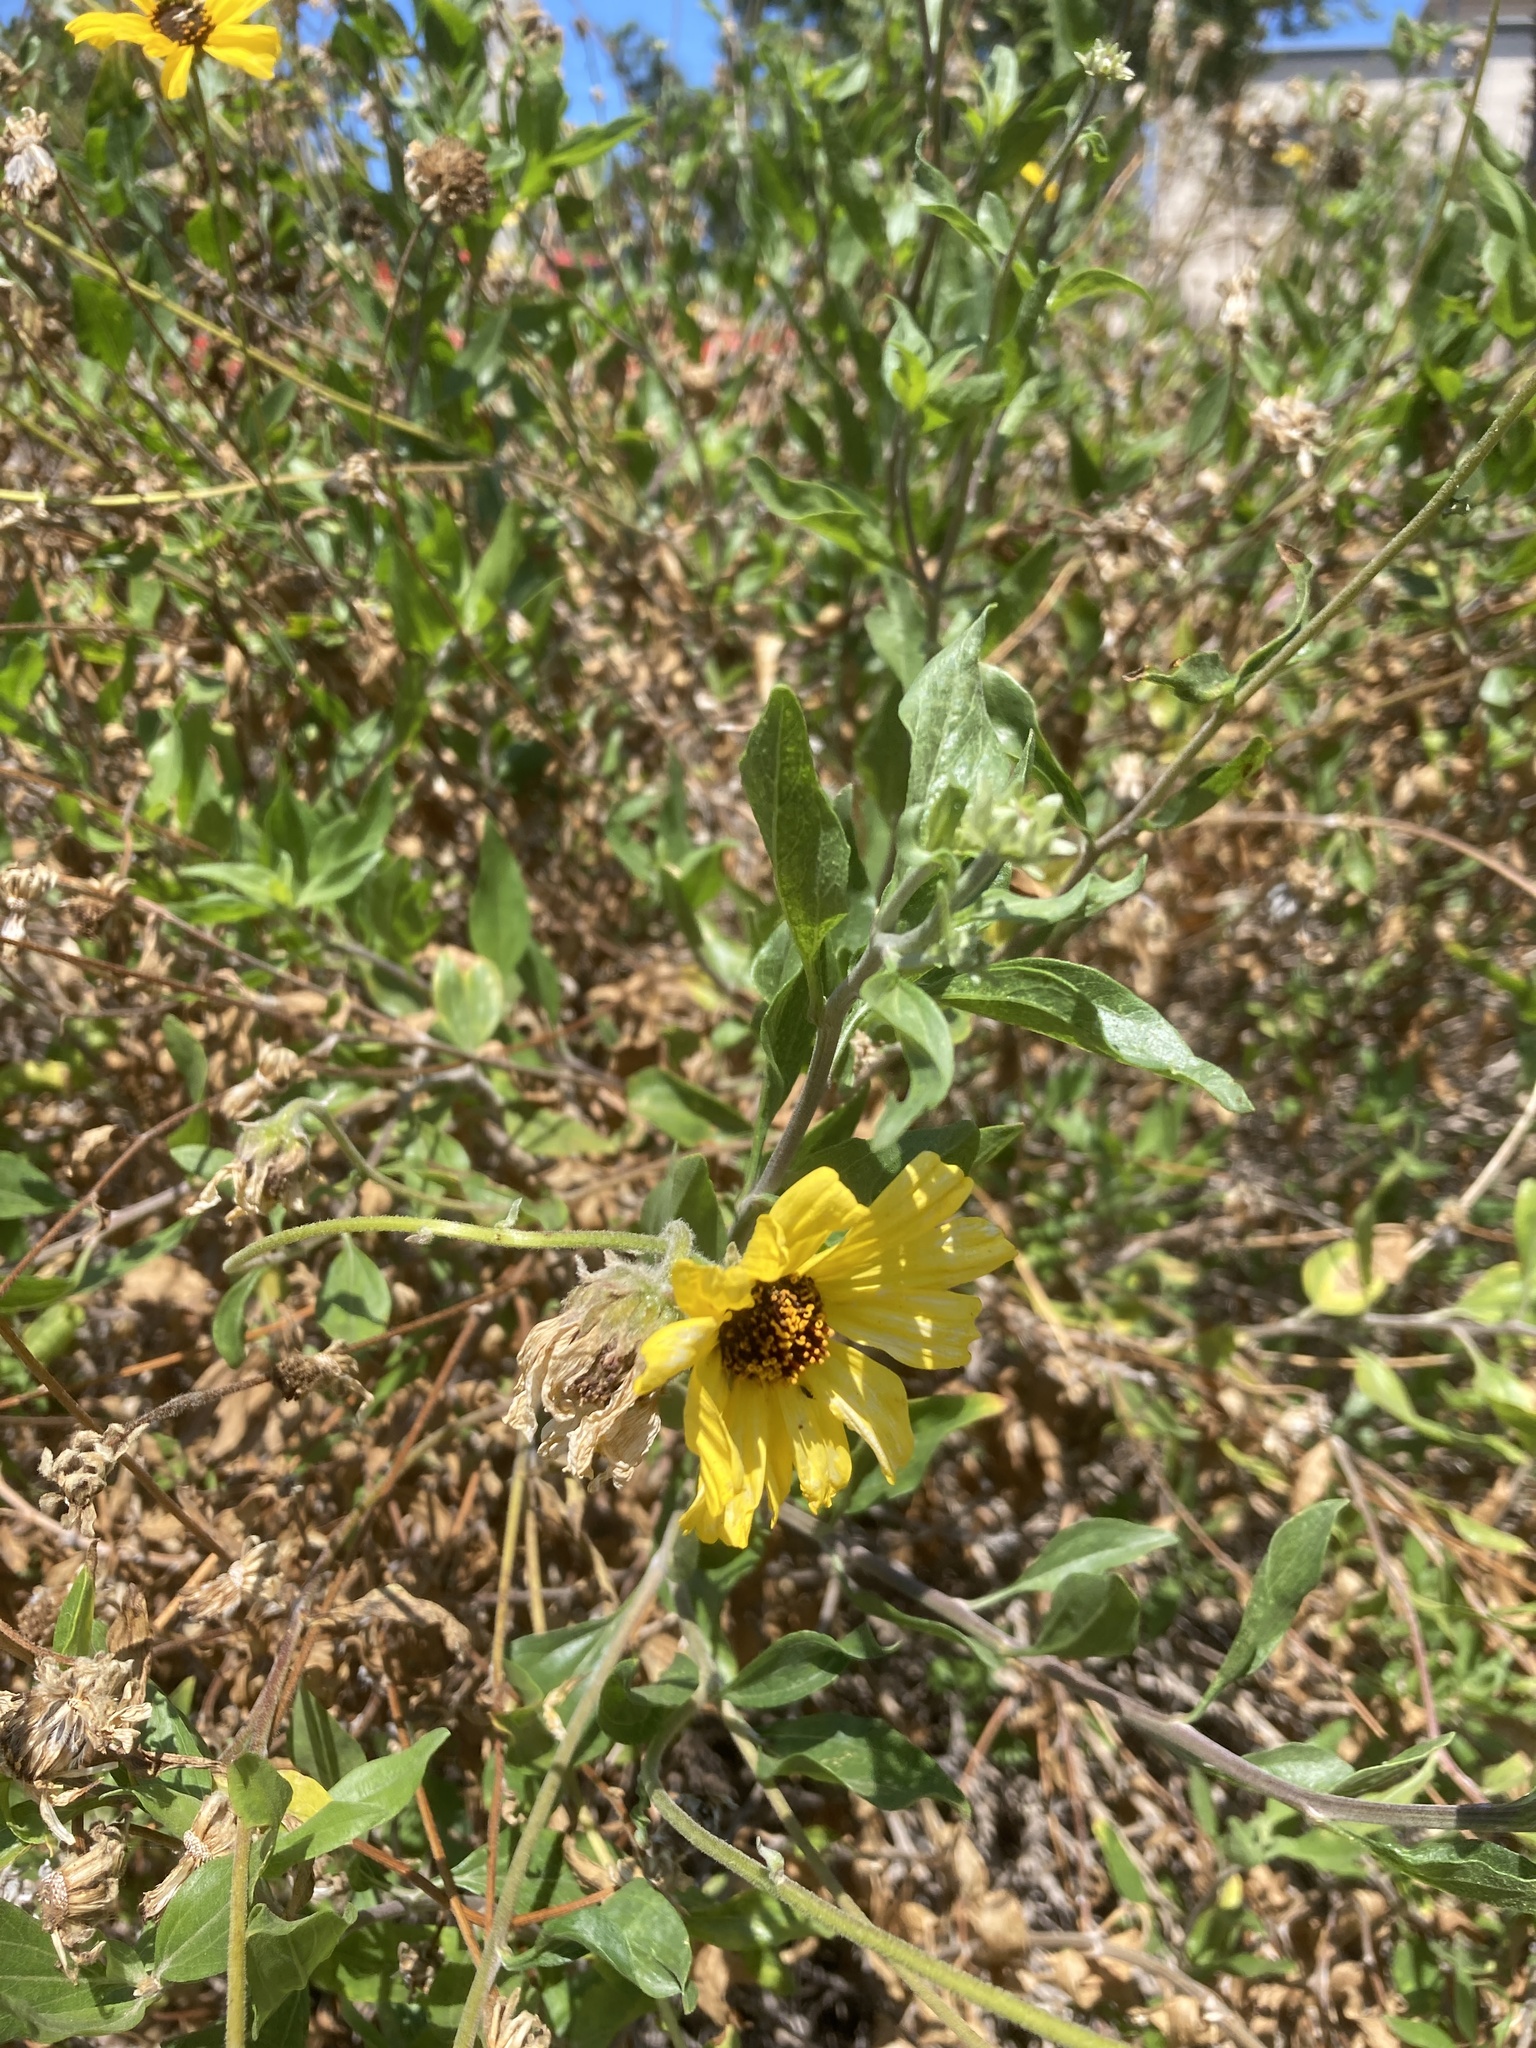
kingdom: Plantae
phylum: Tracheophyta
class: Magnoliopsida
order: Asterales
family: Asteraceae
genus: Encelia
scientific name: Encelia californica
